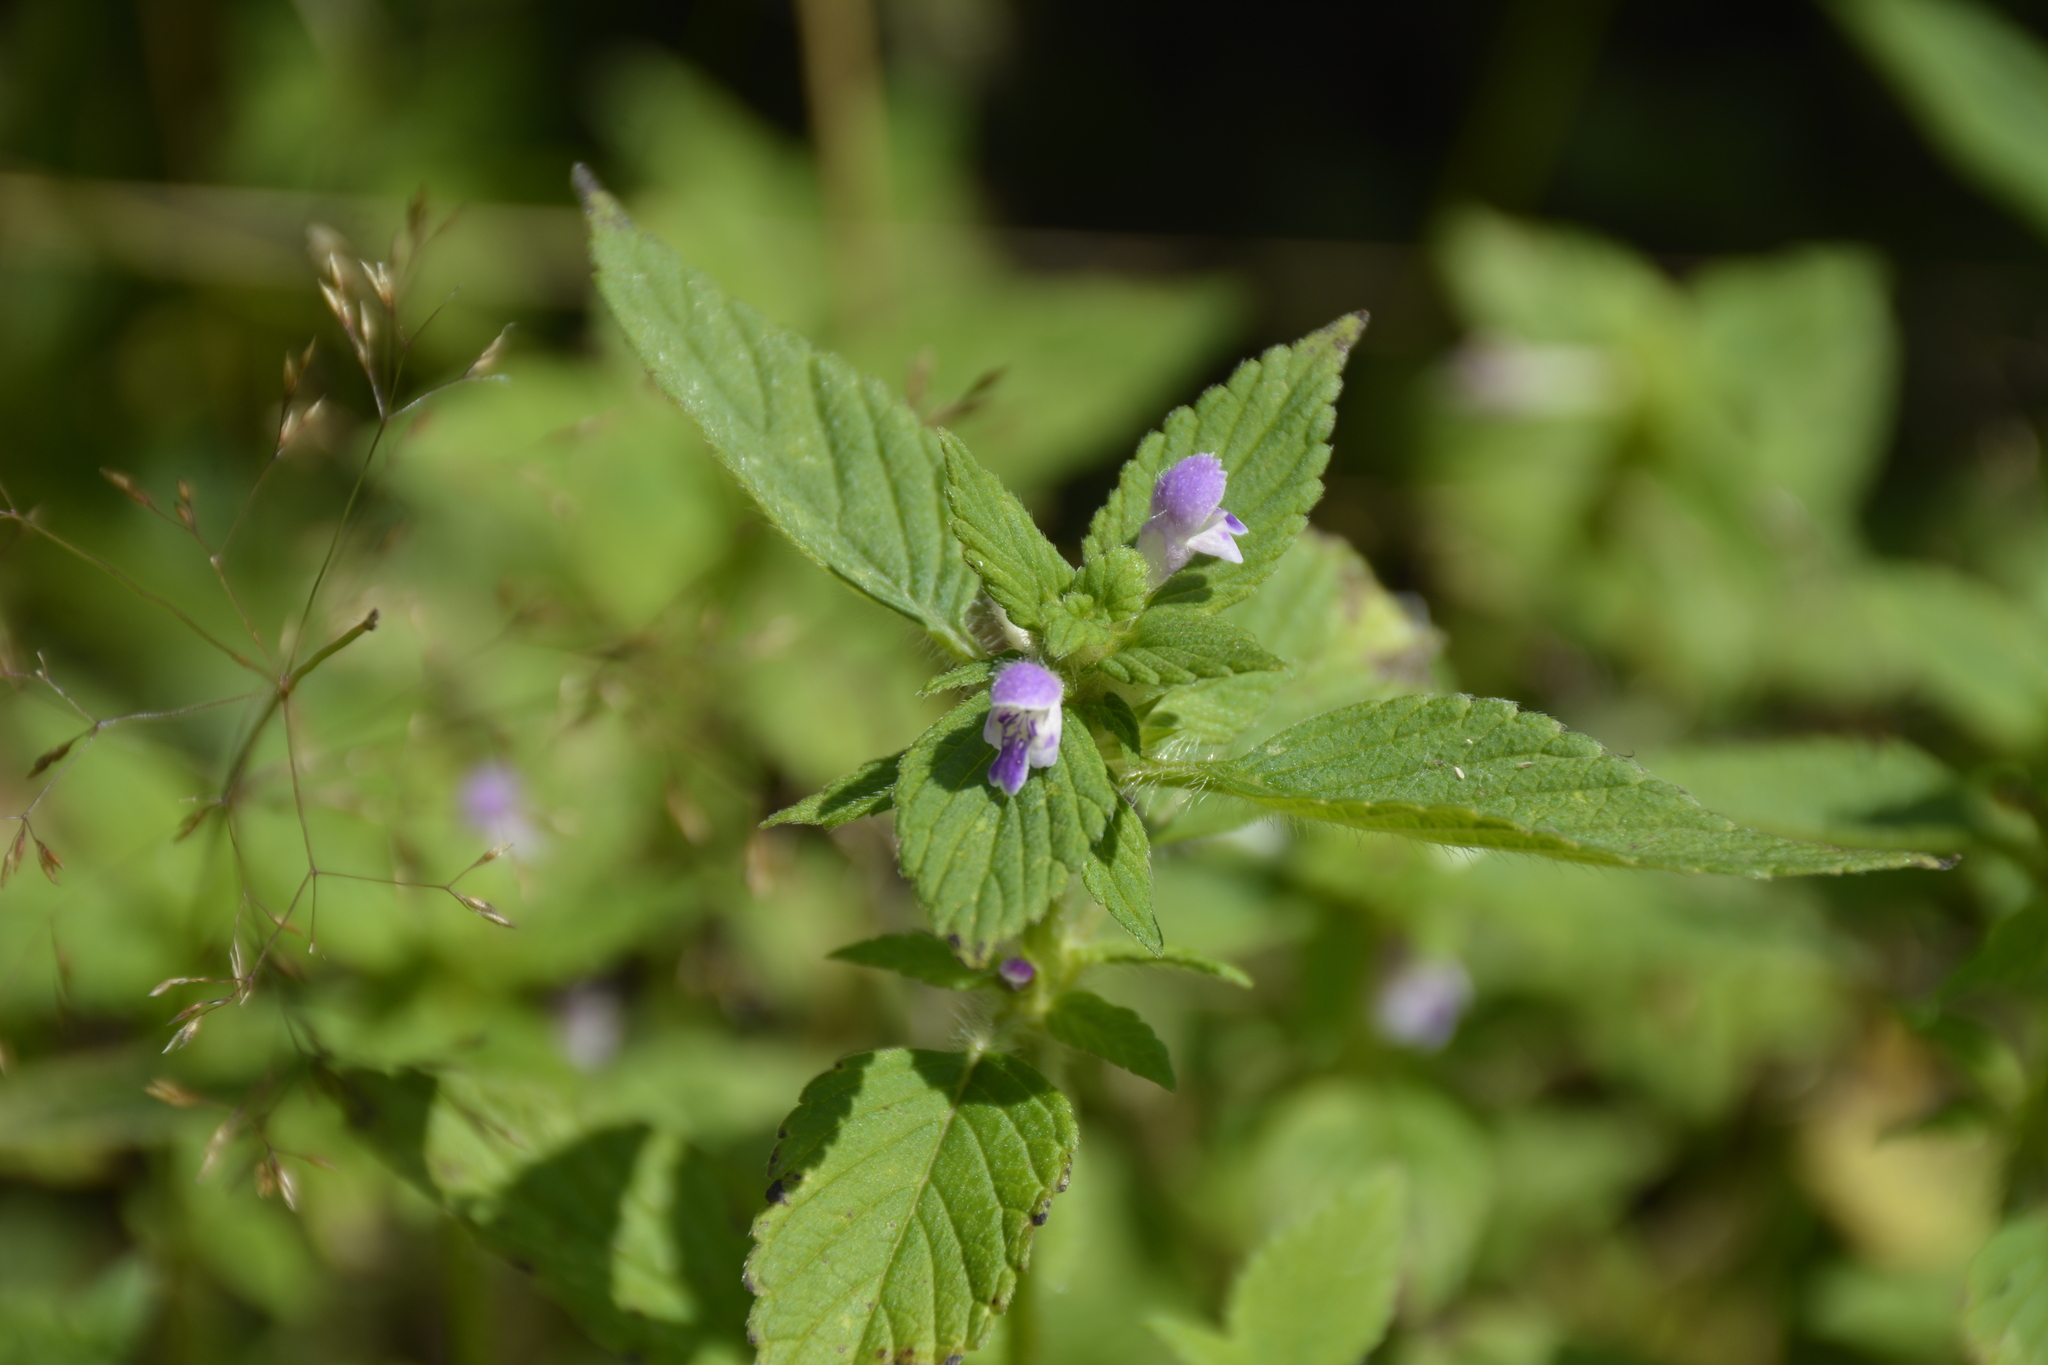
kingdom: Plantae
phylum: Tracheophyta
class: Magnoliopsida
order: Lamiales
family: Lamiaceae
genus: Galeopsis
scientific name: Galeopsis bifida
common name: Bifid hemp-nettle
